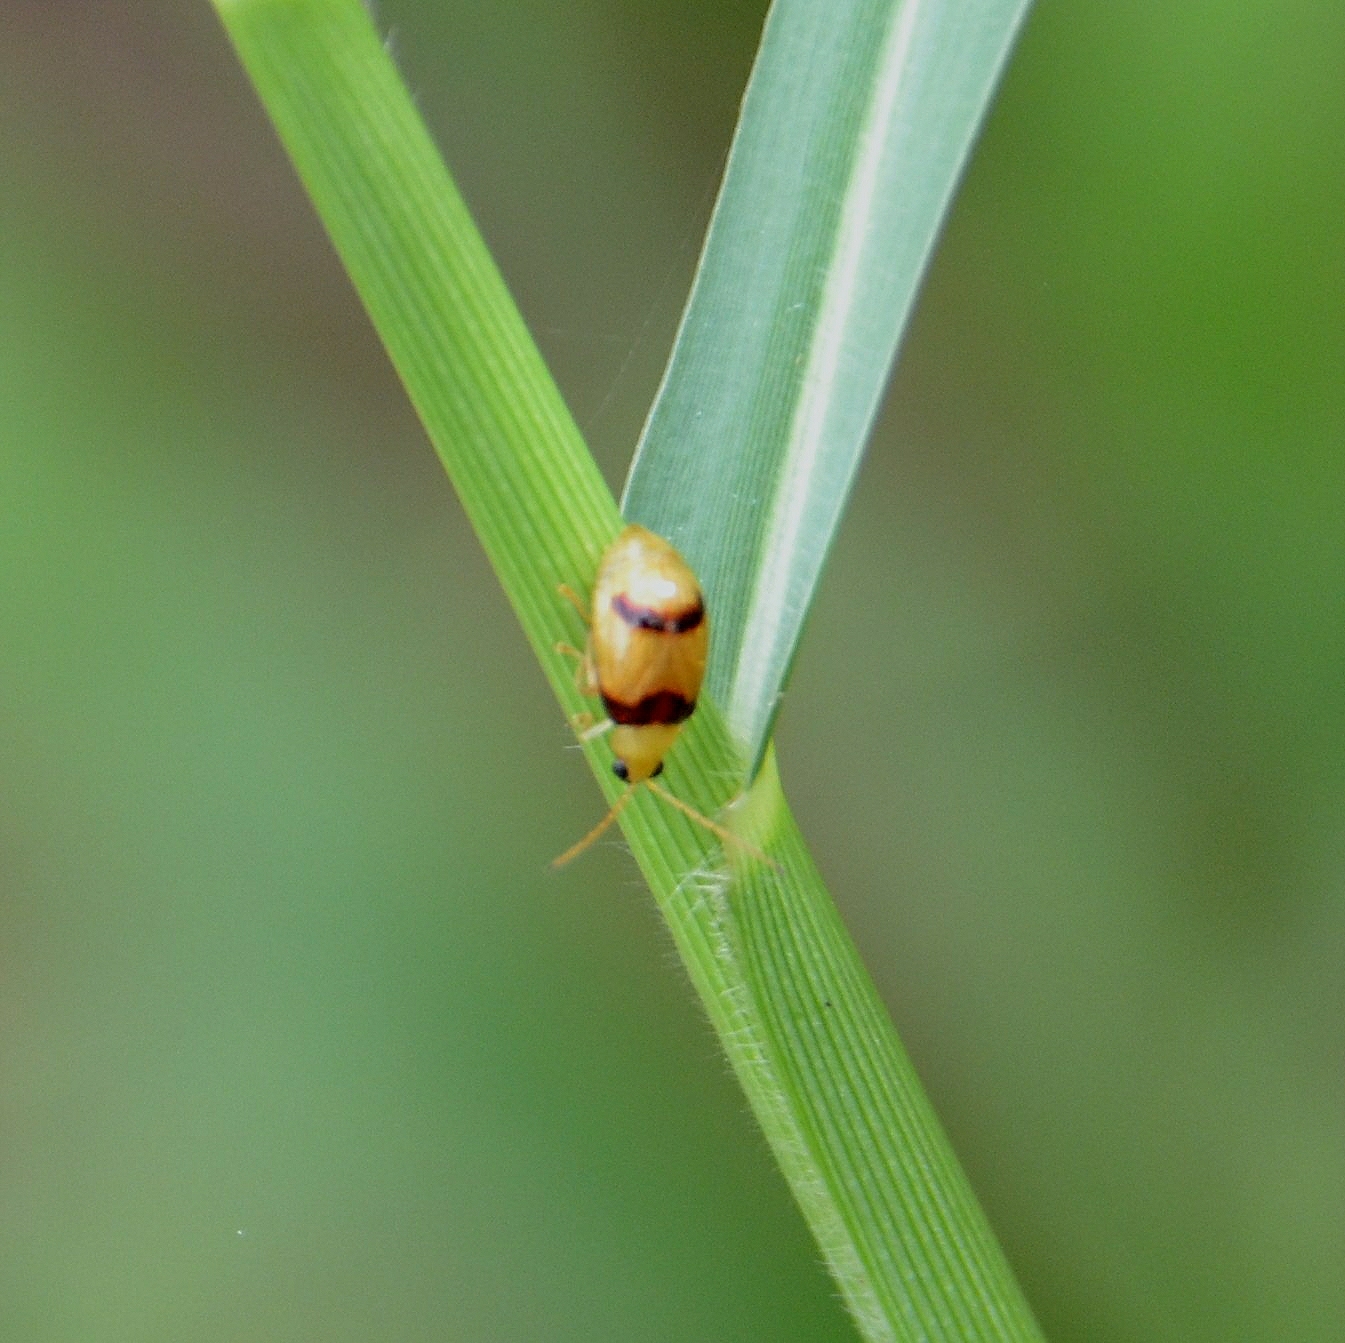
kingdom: Animalia
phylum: Arthropoda
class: Insecta
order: Coleoptera
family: Chrysomelidae
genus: Monolepta
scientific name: Monolepta
